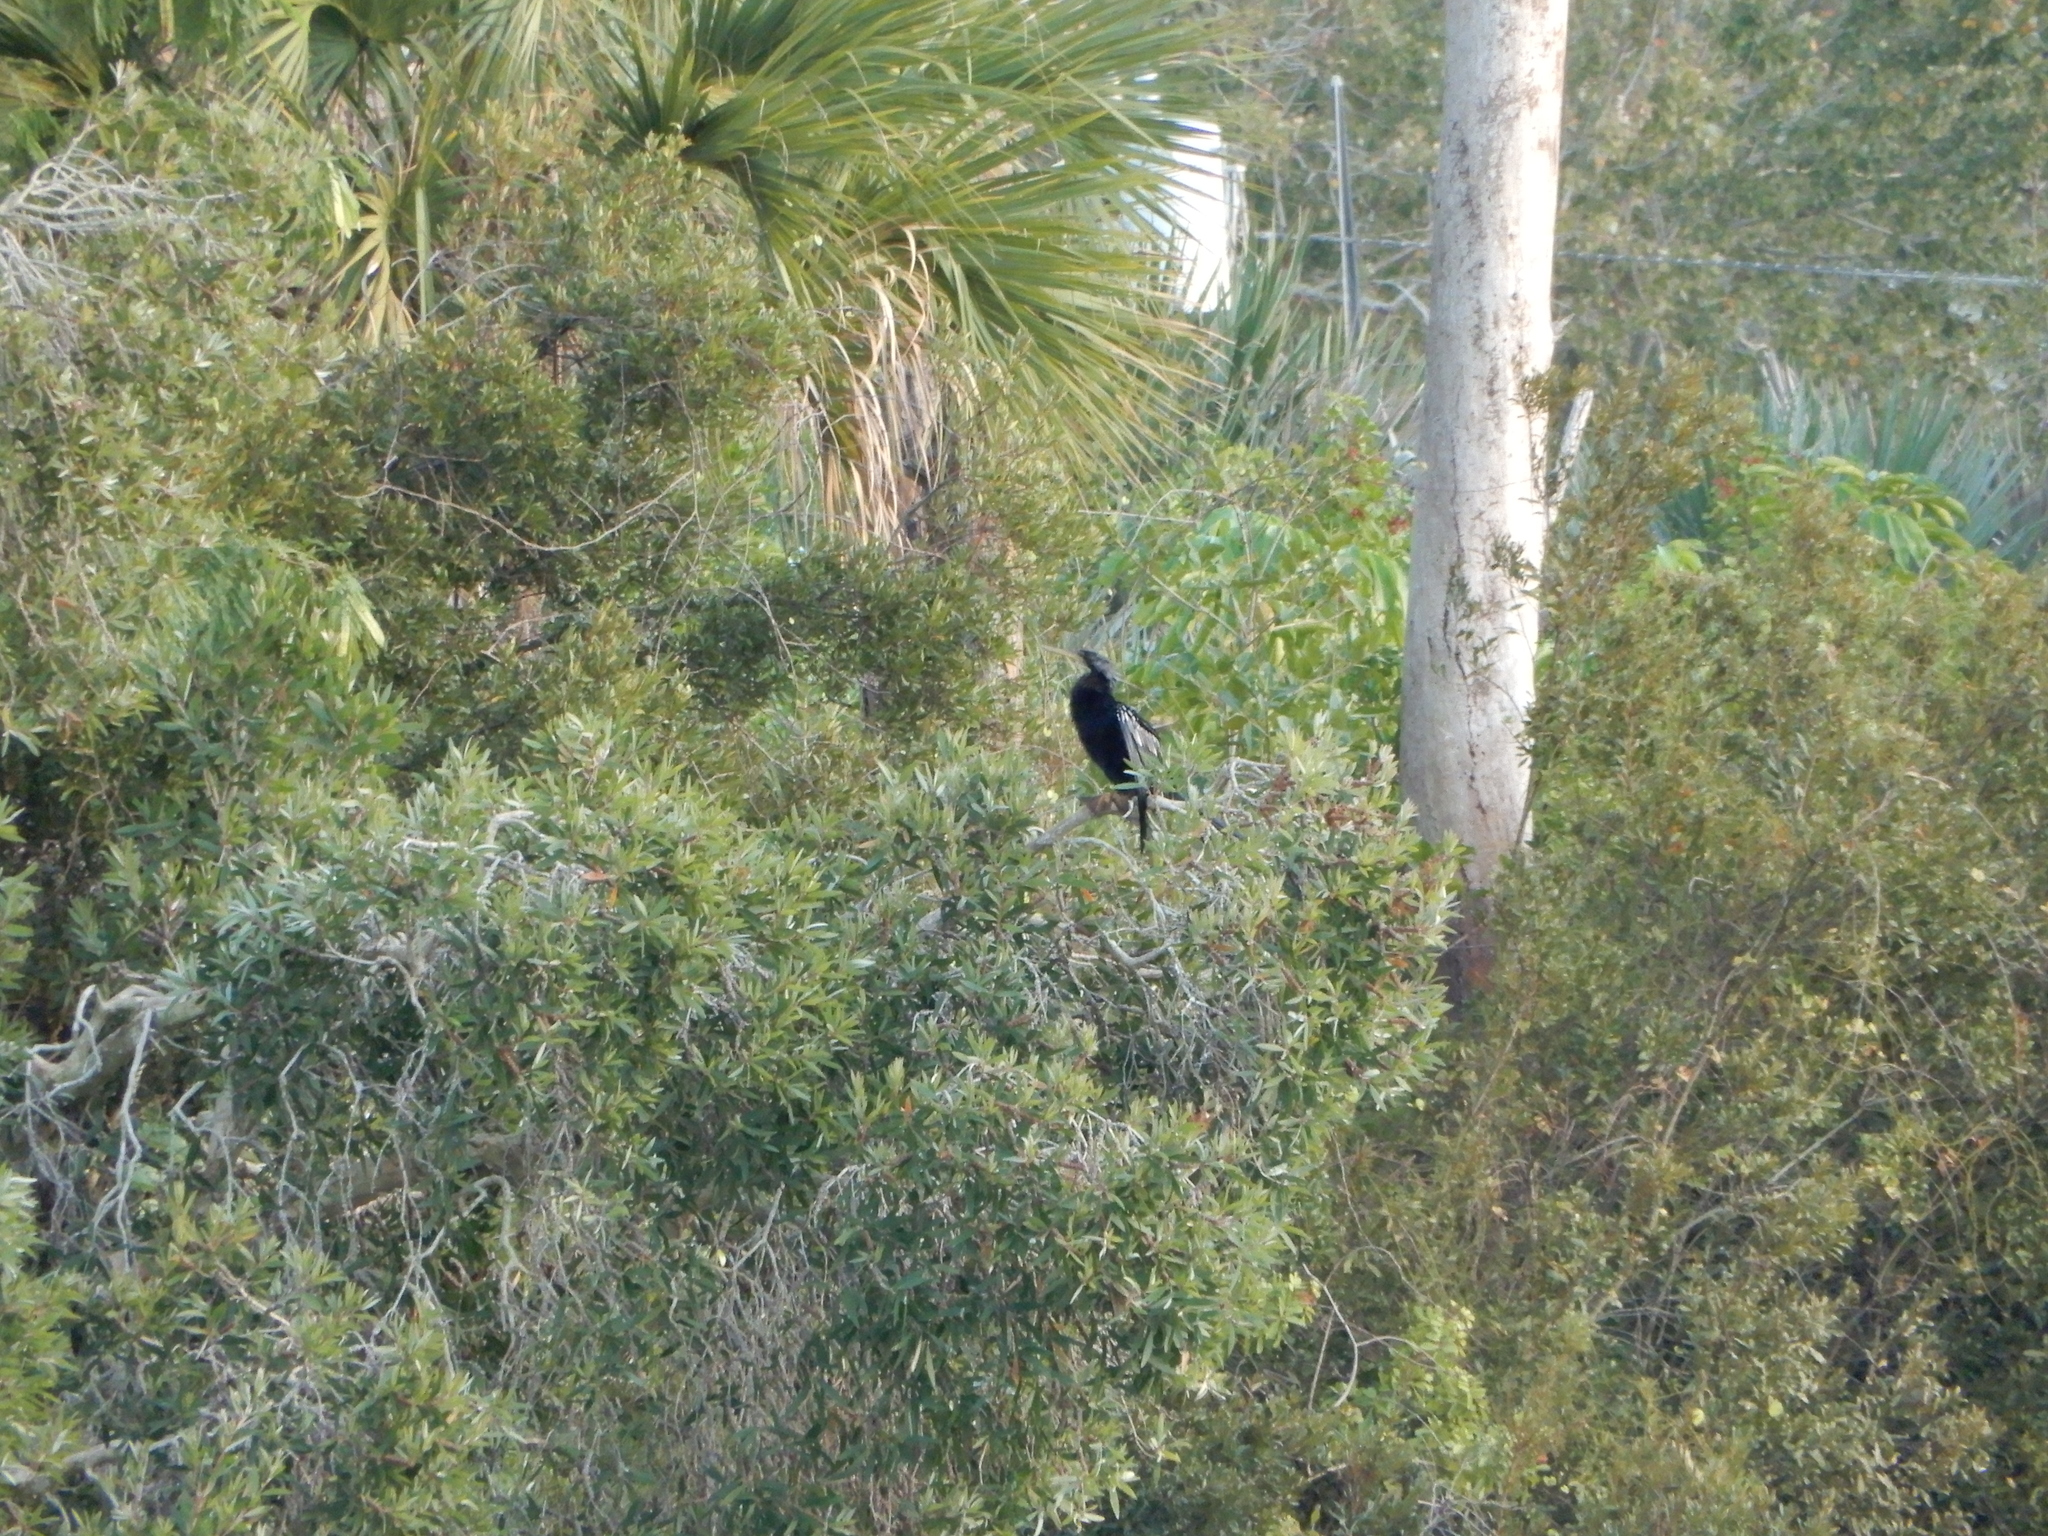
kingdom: Animalia
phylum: Chordata
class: Aves
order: Suliformes
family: Anhingidae
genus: Anhinga
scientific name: Anhinga anhinga
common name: Anhinga
